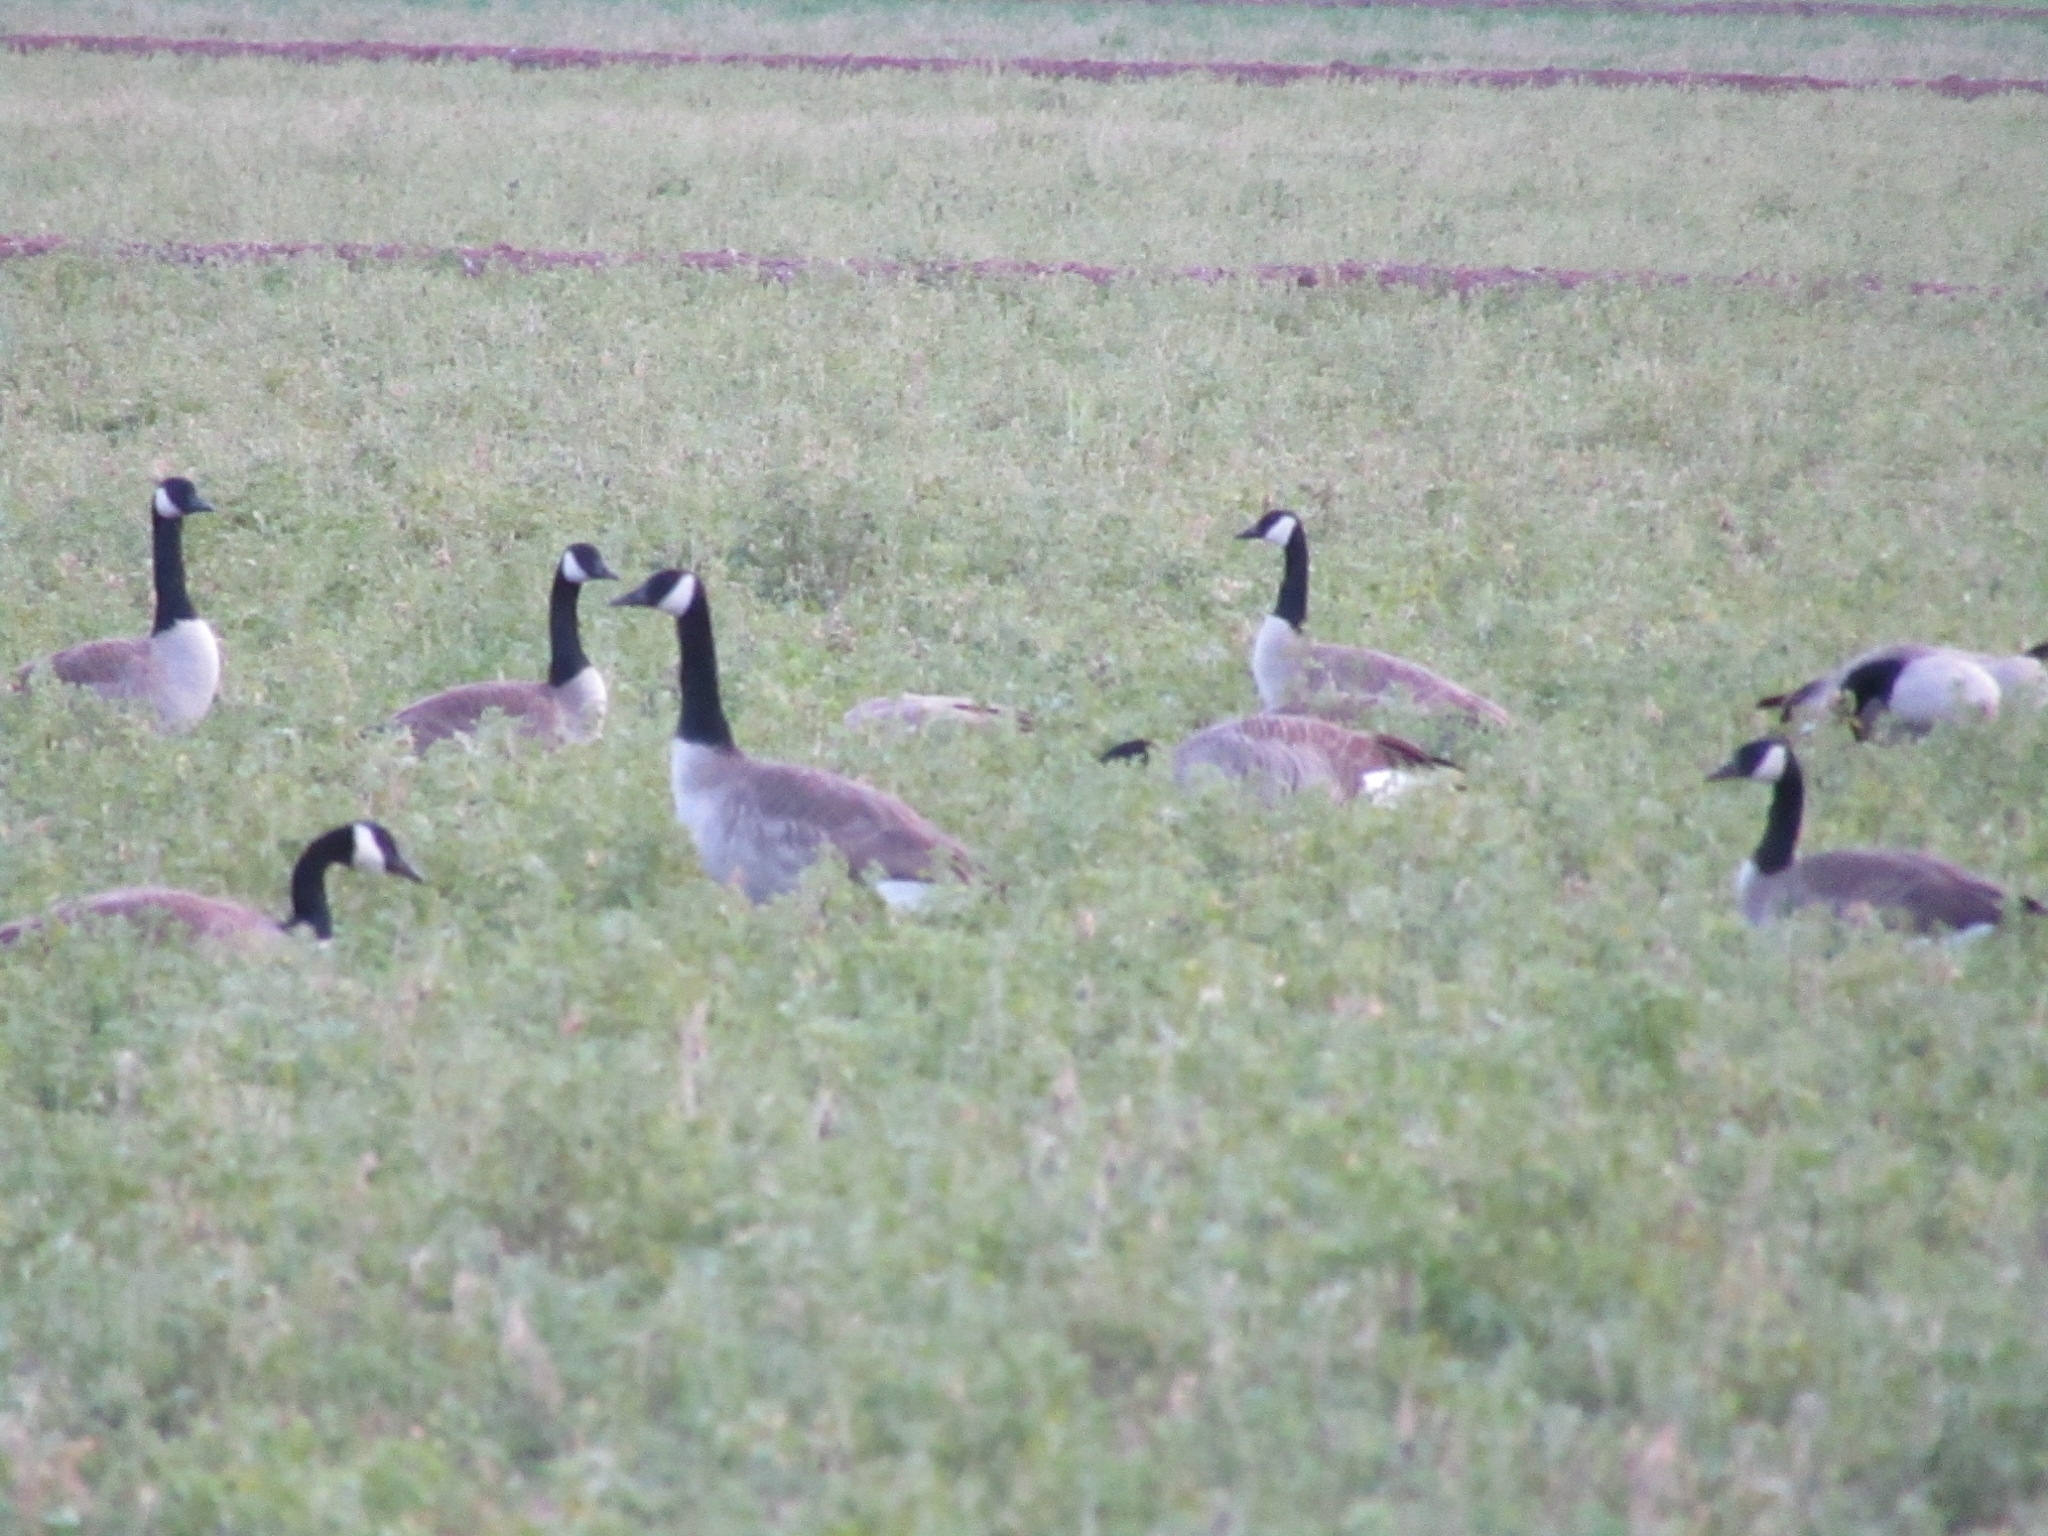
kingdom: Animalia
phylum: Chordata
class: Aves
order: Anseriformes
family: Anatidae
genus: Branta
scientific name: Branta canadensis
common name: Canada goose
